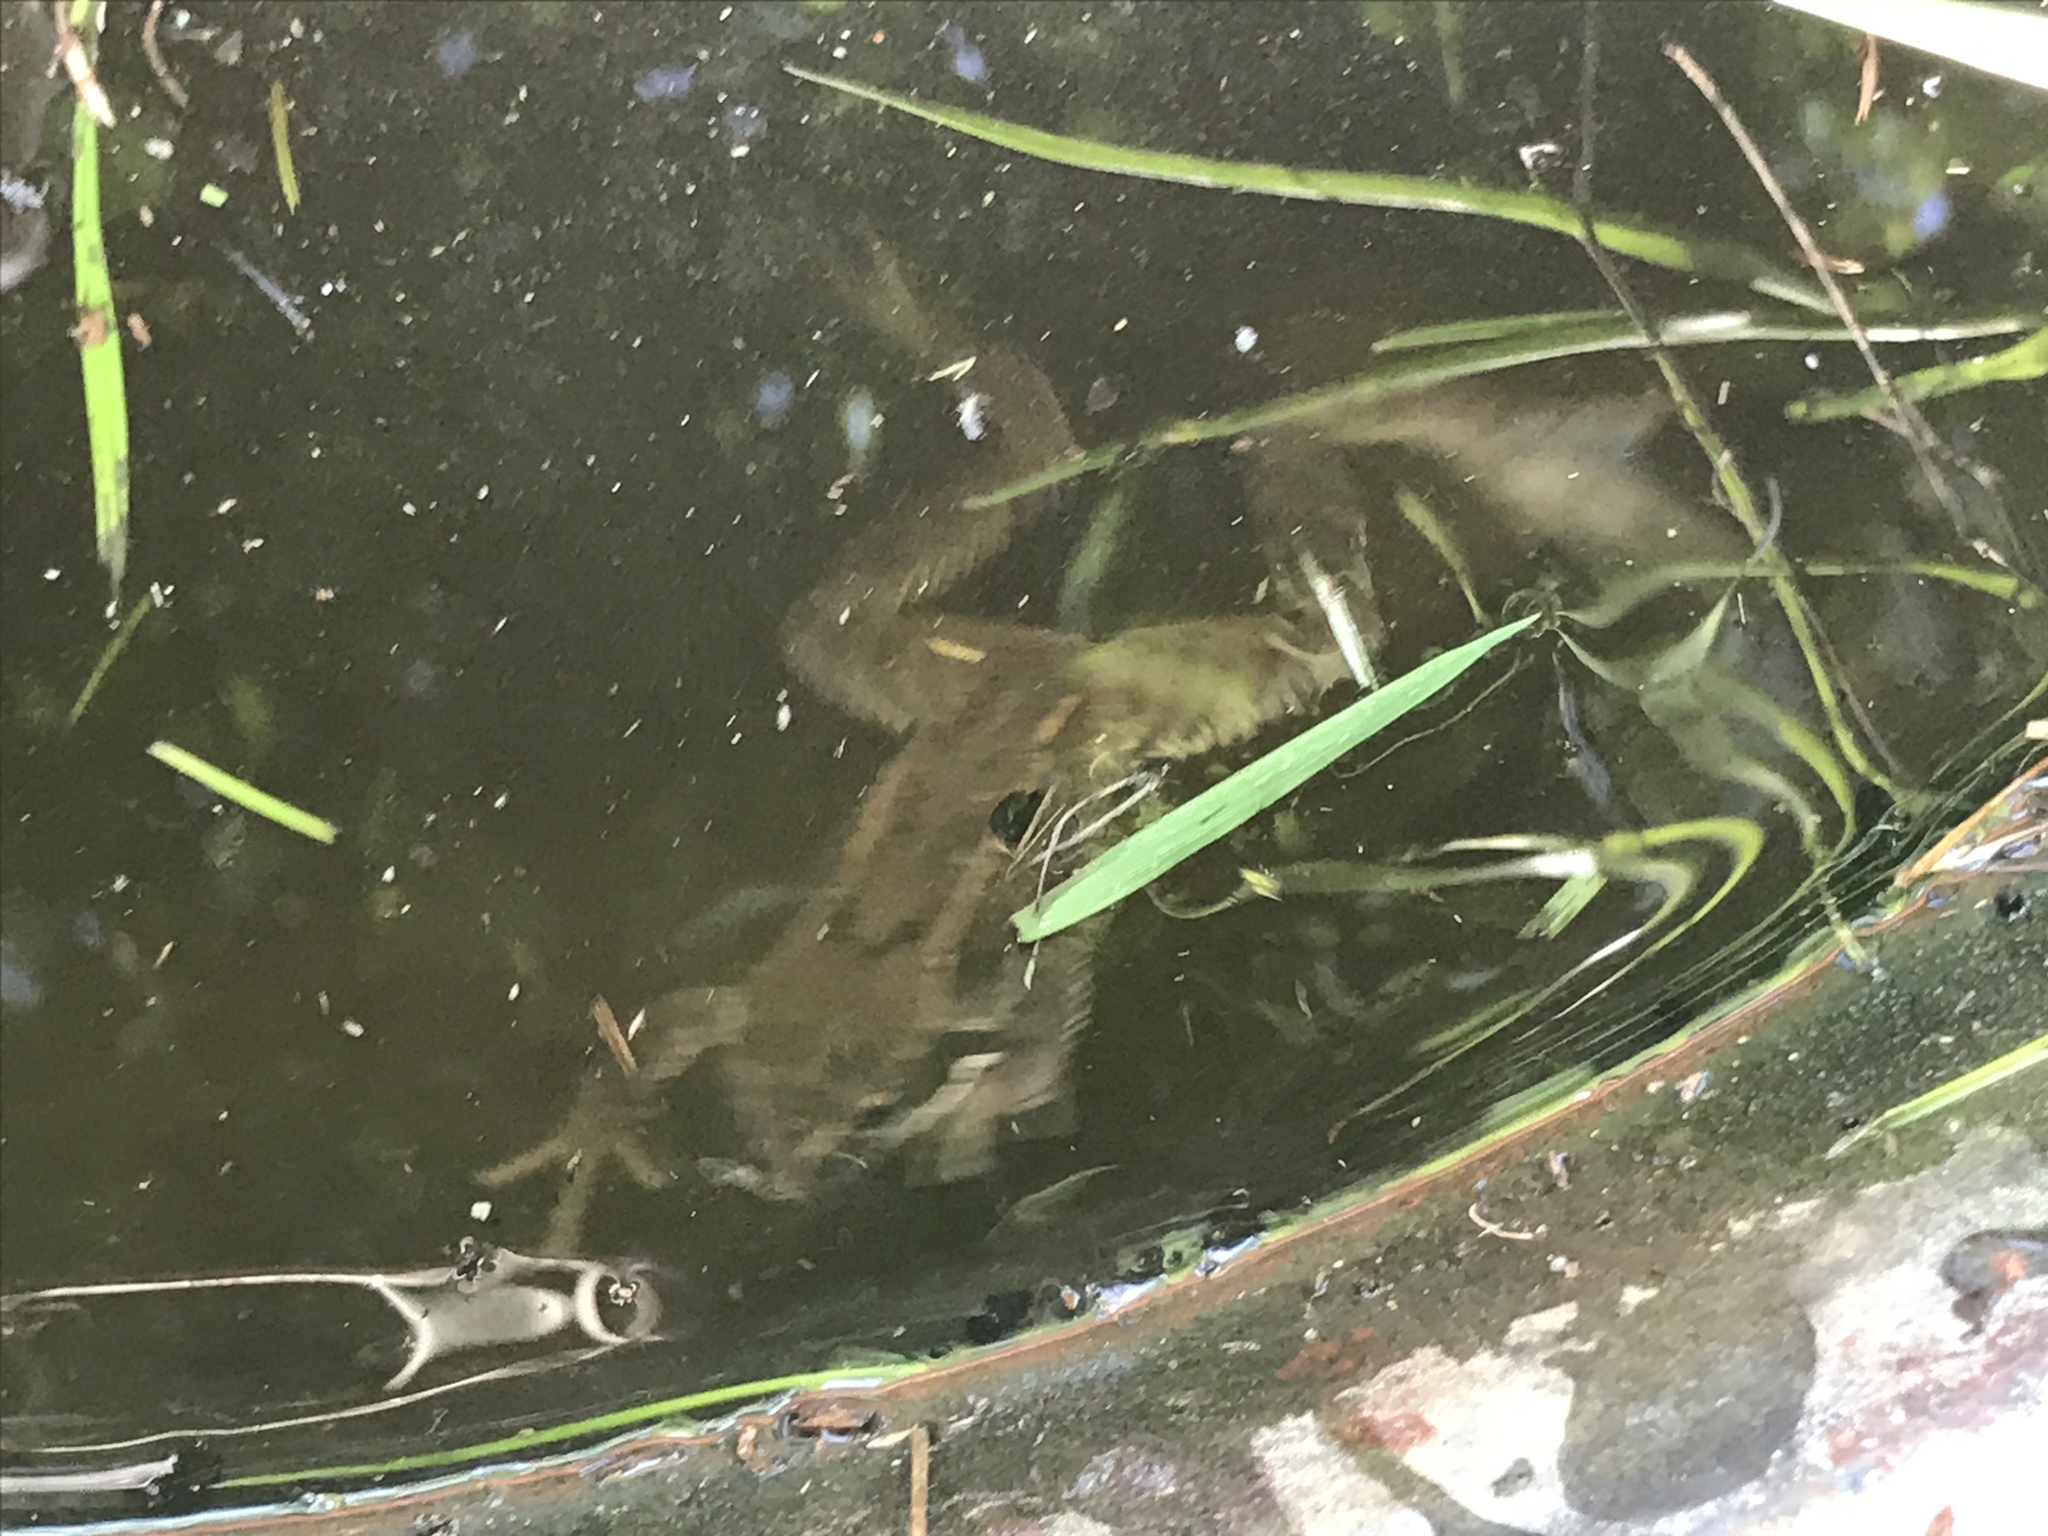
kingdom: Animalia
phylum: Chordata
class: Amphibia
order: Anura
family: Ranidae
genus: Rana
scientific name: Rana temporaria
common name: Common frog
